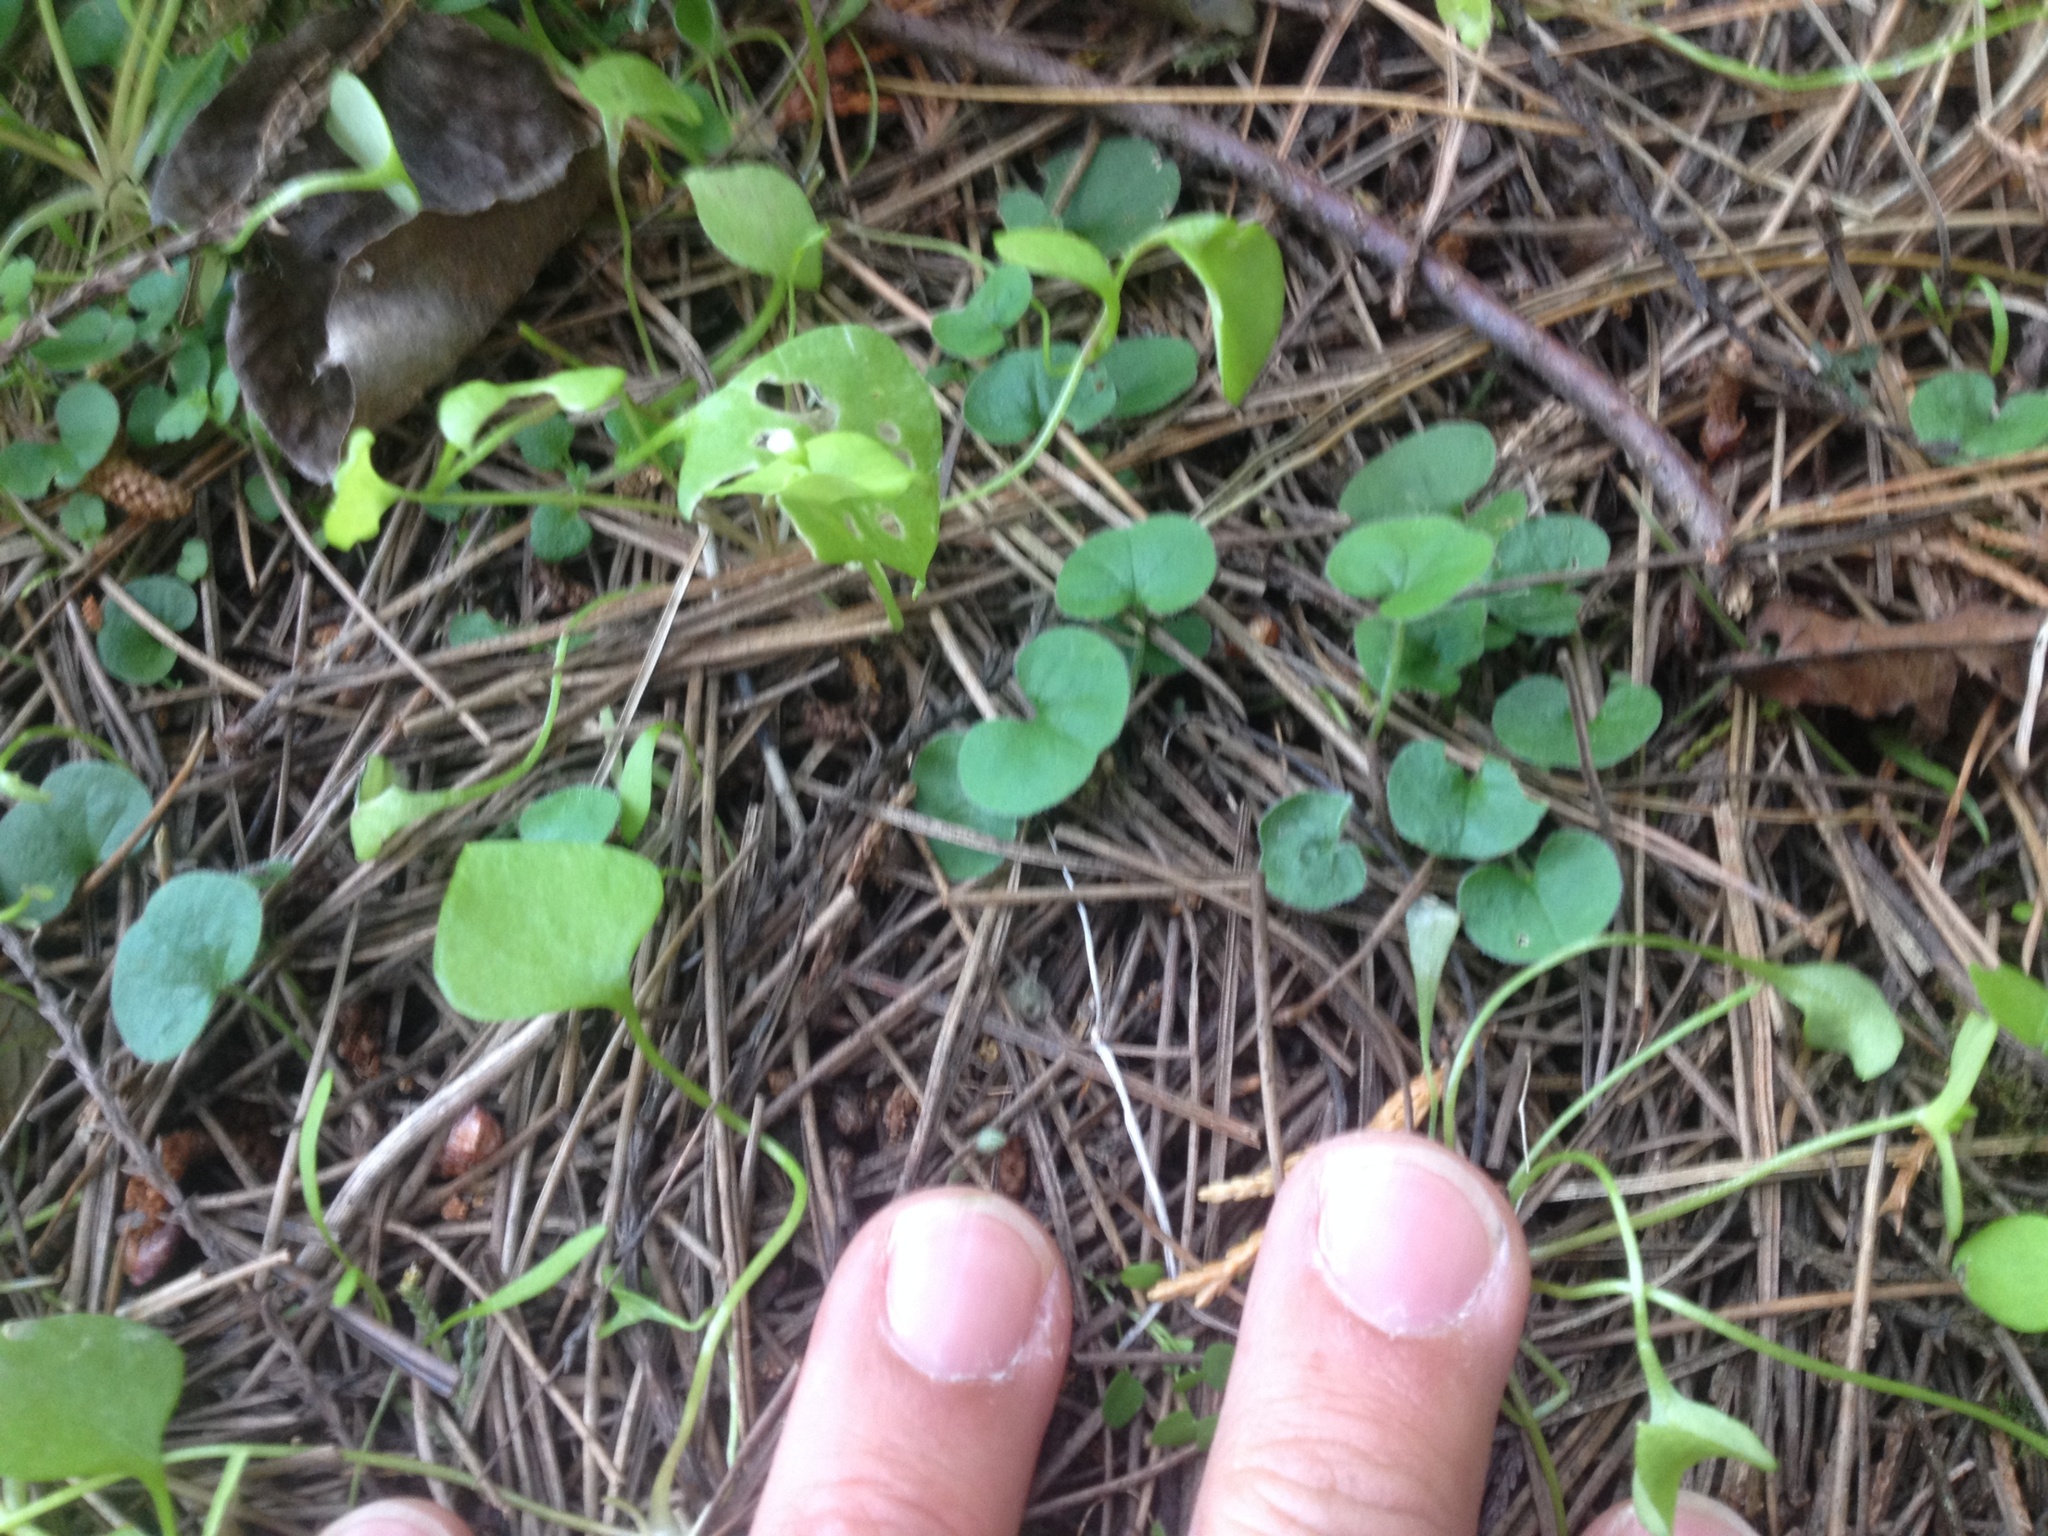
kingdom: Plantae
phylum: Tracheophyta
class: Magnoliopsida
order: Solanales
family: Convolvulaceae
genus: Dichondra
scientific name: Dichondra repens
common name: Kidneyweed
